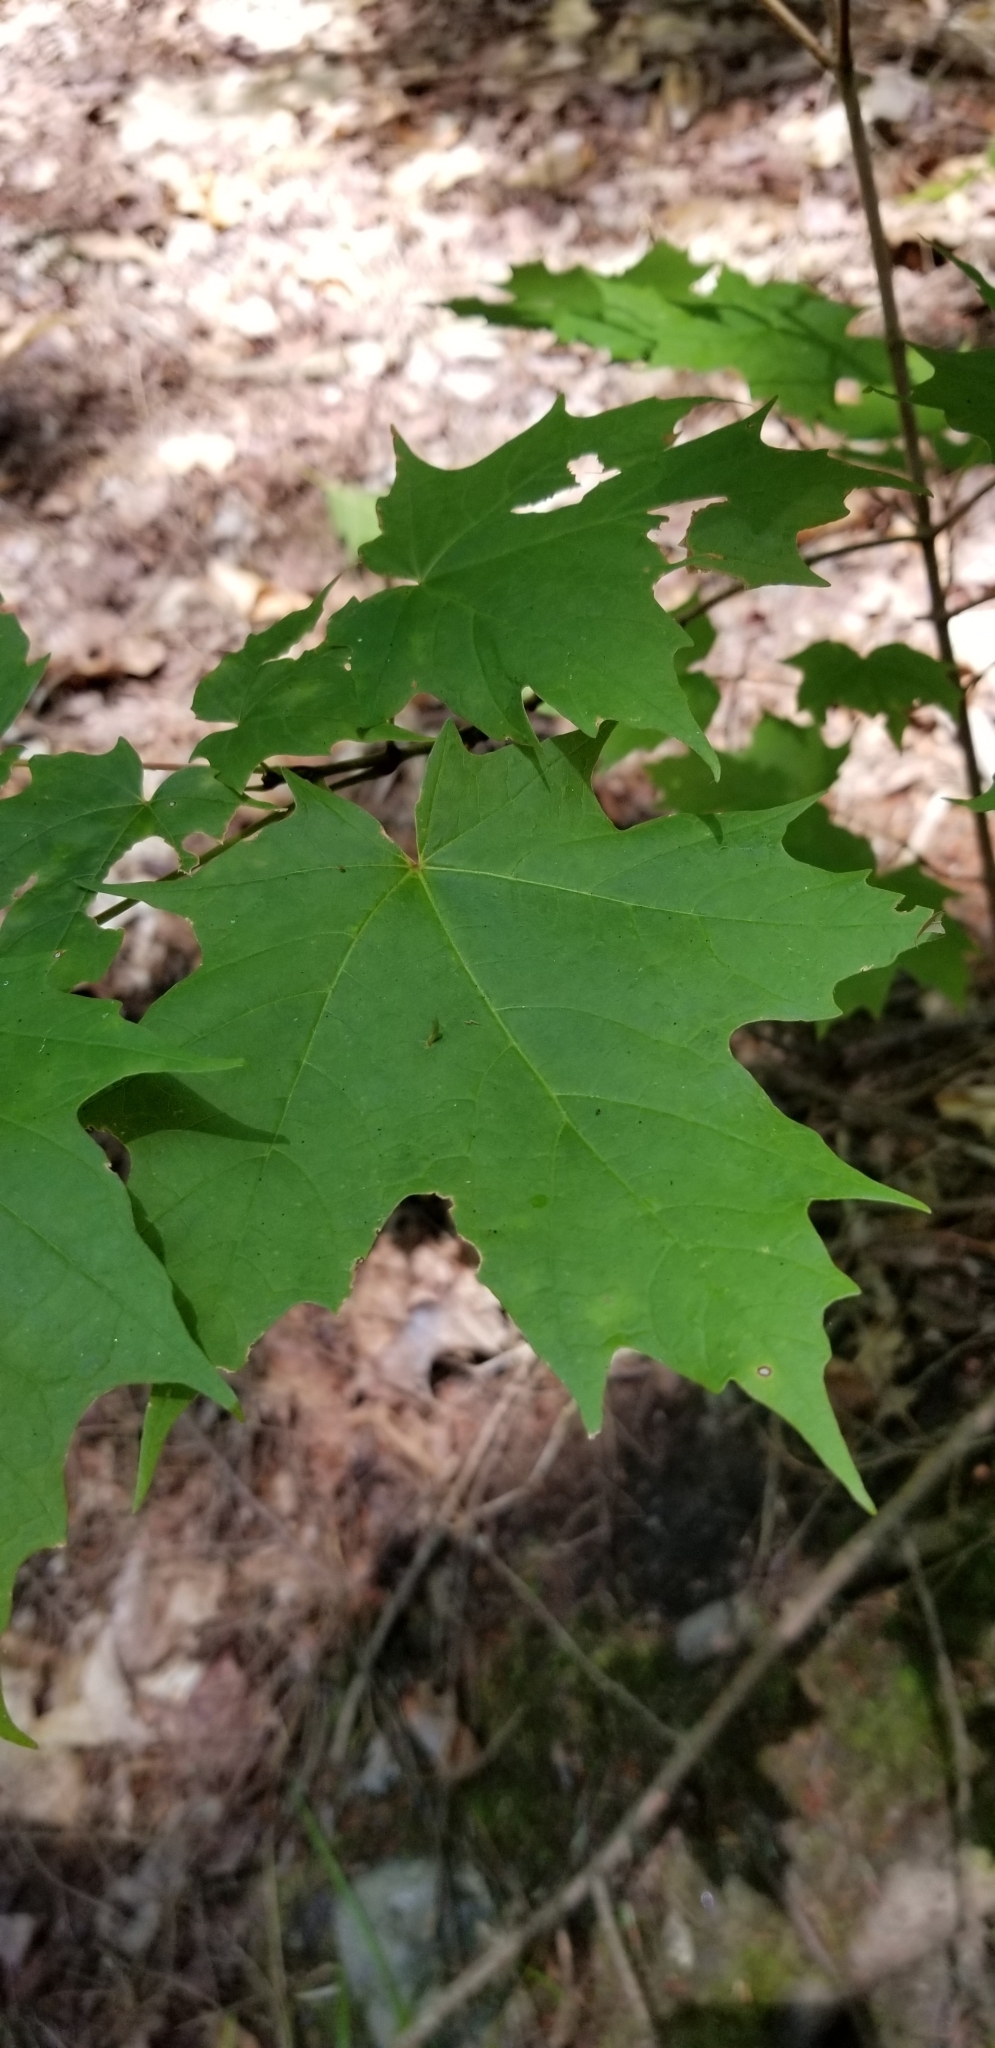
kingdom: Animalia
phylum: Arthropoda
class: Arachnida
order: Trombidiformes
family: Eriophyidae
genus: Vasates
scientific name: Vasates aceriscrumena
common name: Maple spindle gall mite
